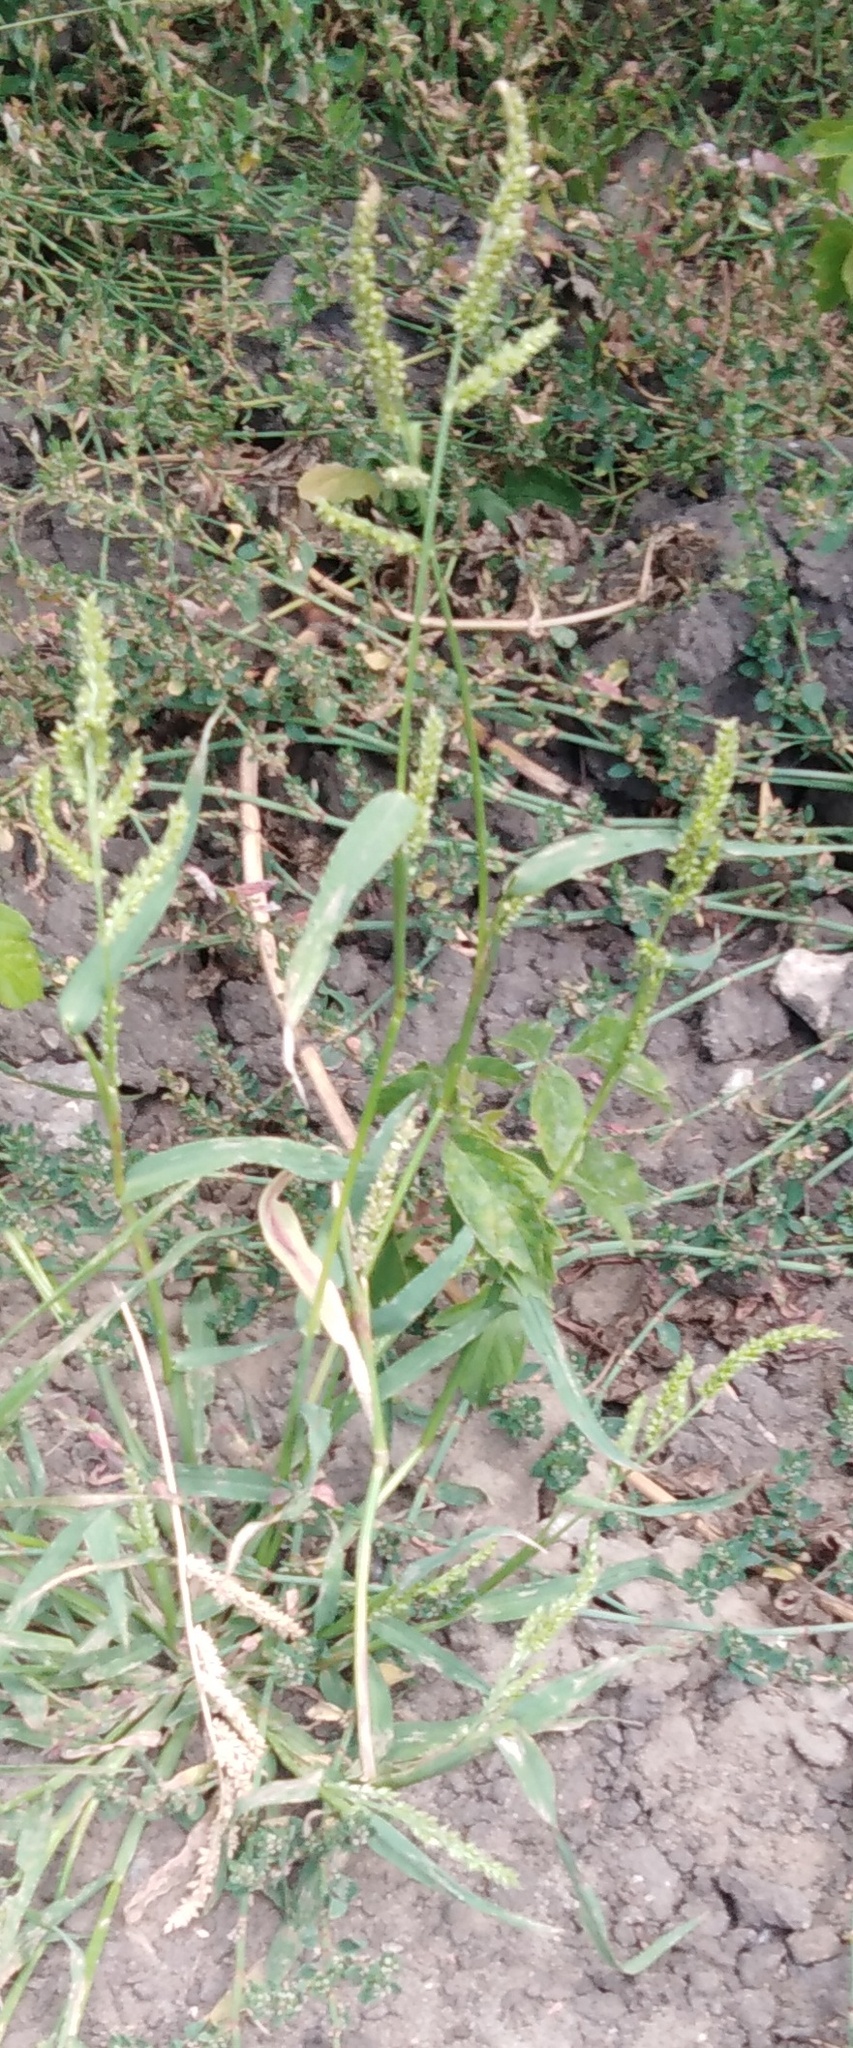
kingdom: Plantae
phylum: Tracheophyta
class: Liliopsida
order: Poales
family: Poaceae
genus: Echinochloa
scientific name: Echinochloa crus-galli
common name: Cockspur
